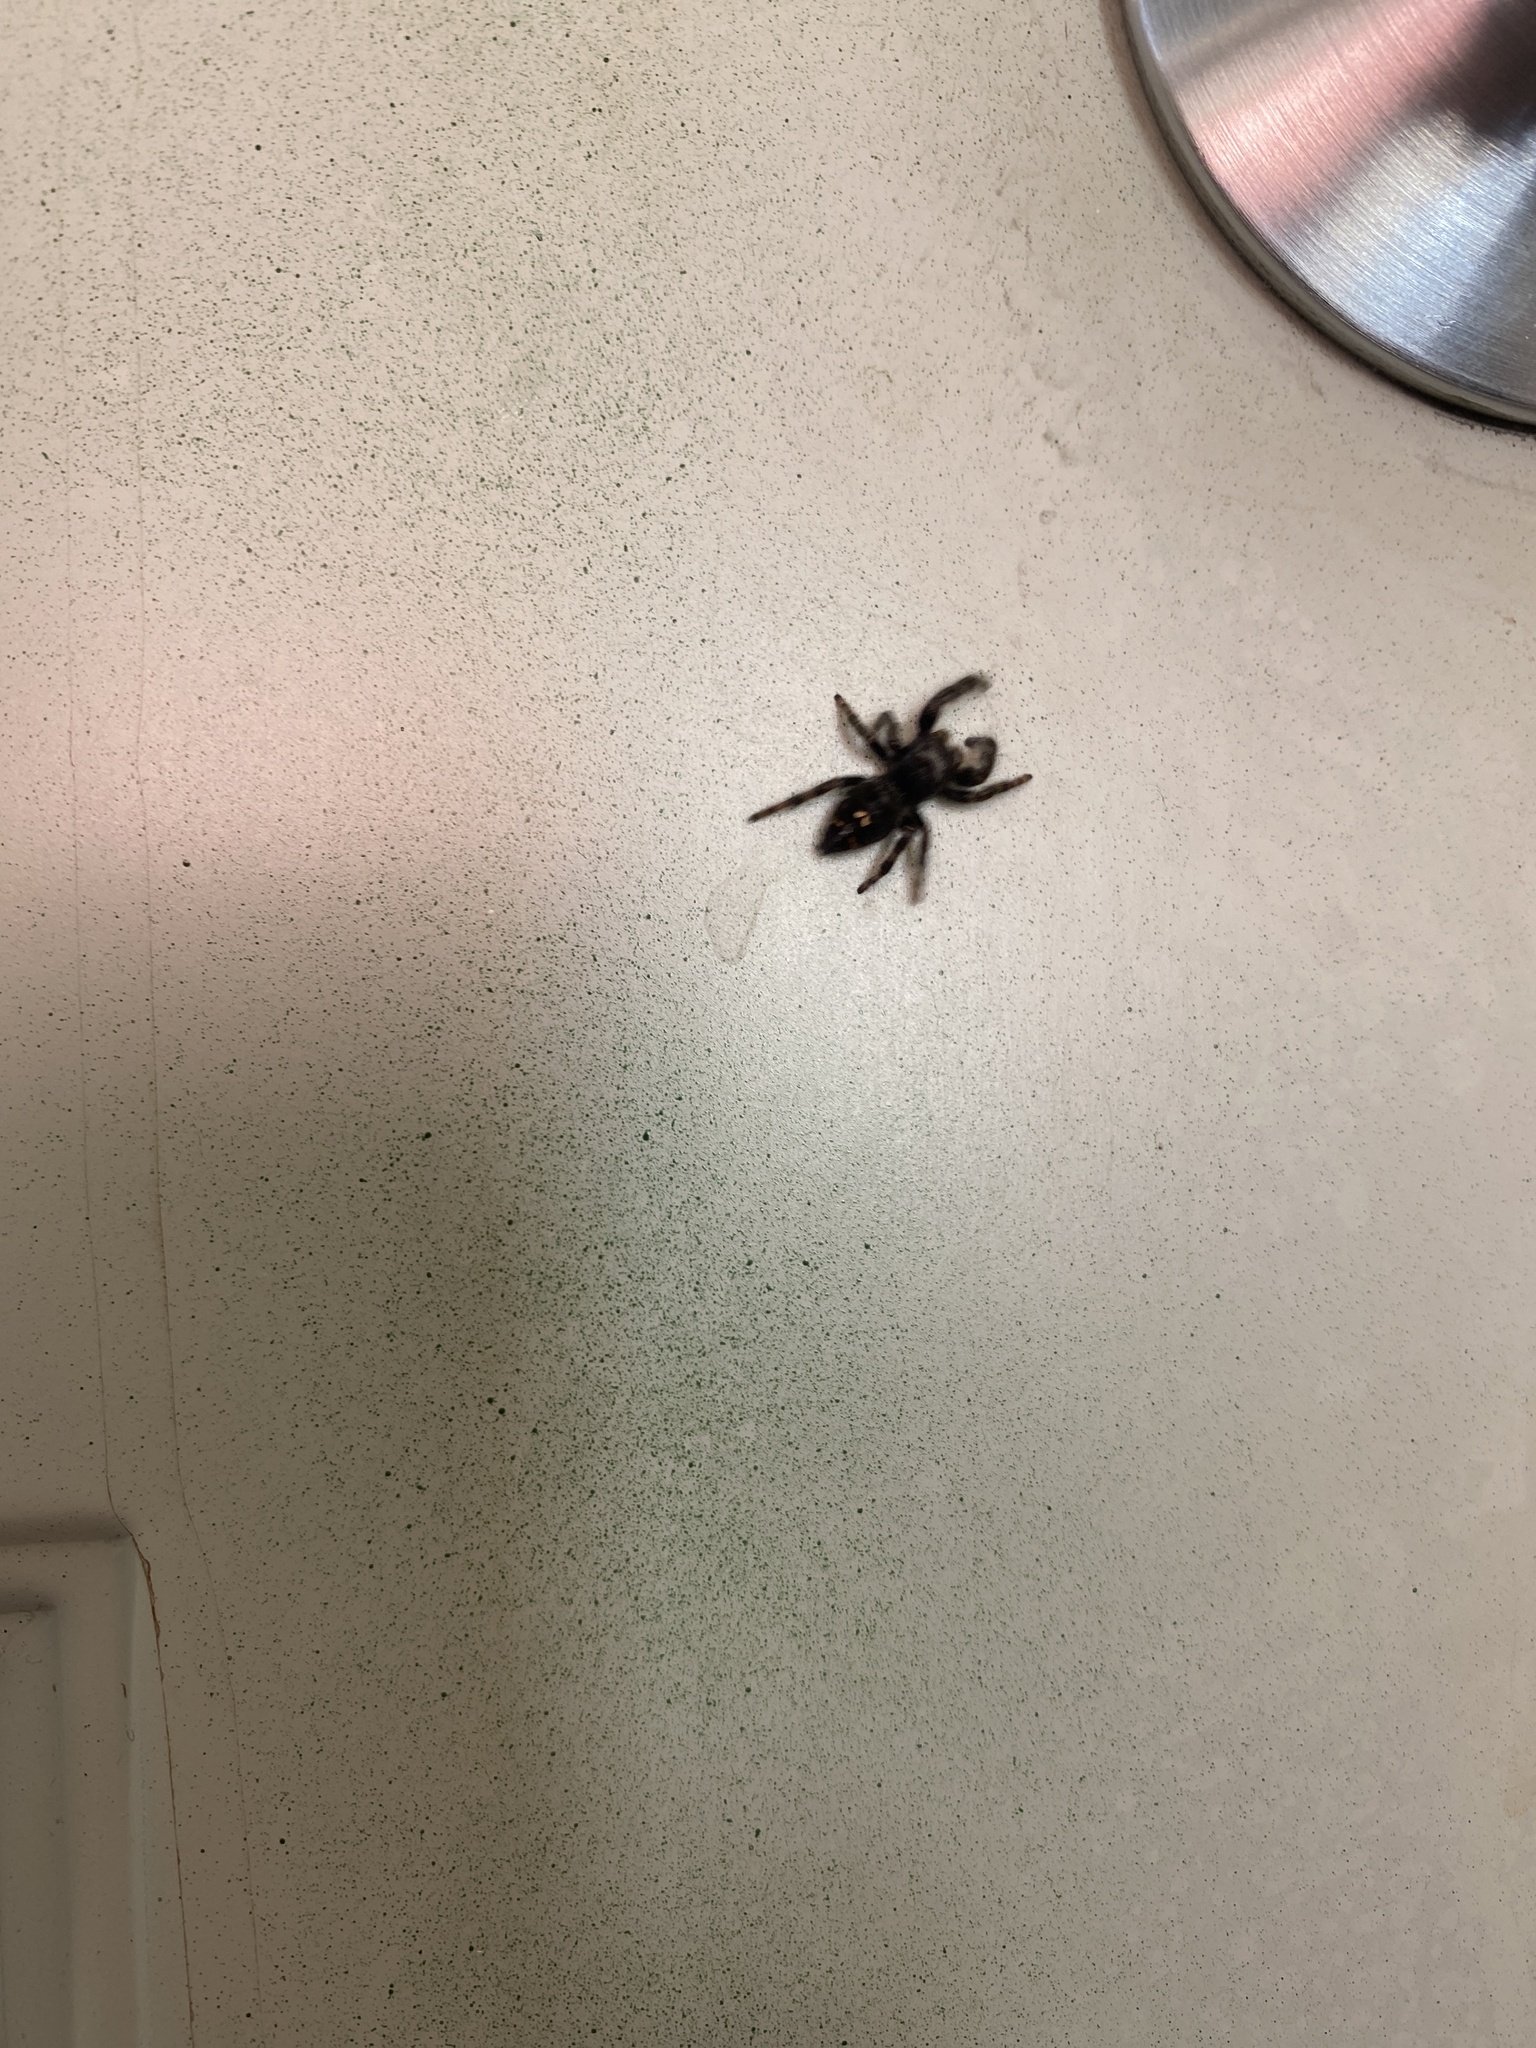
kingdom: Animalia
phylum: Arthropoda
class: Arachnida
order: Araneae
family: Salticidae
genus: Phidippus
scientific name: Phidippus audax
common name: Bold jumper
